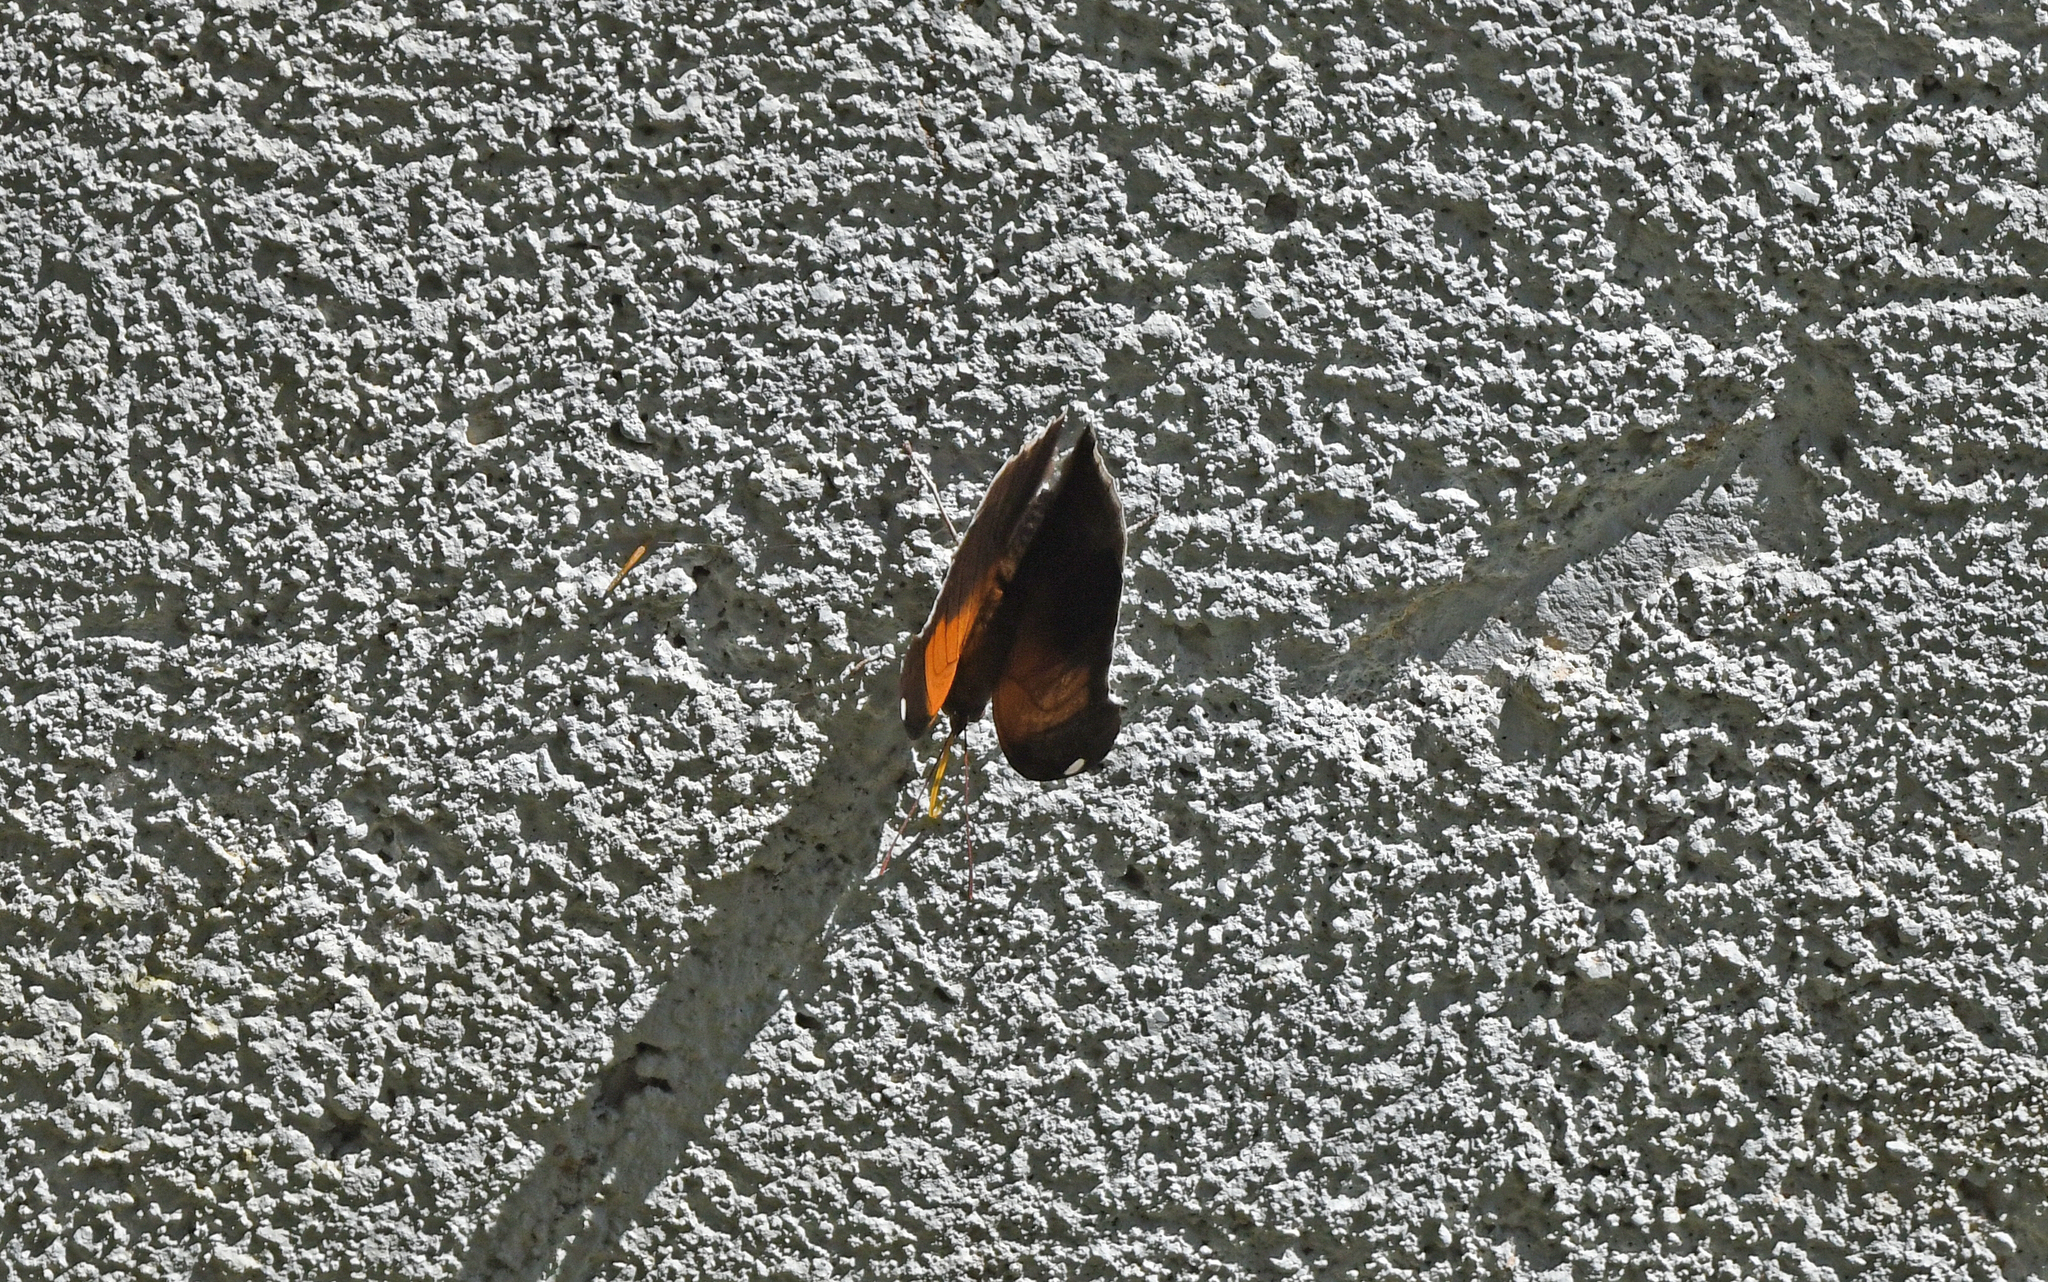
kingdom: Animalia
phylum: Arthropoda
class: Insecta
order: Lepidoptera
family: Nymphalidae
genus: Historis
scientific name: Historis odius
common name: Orion cecropian
